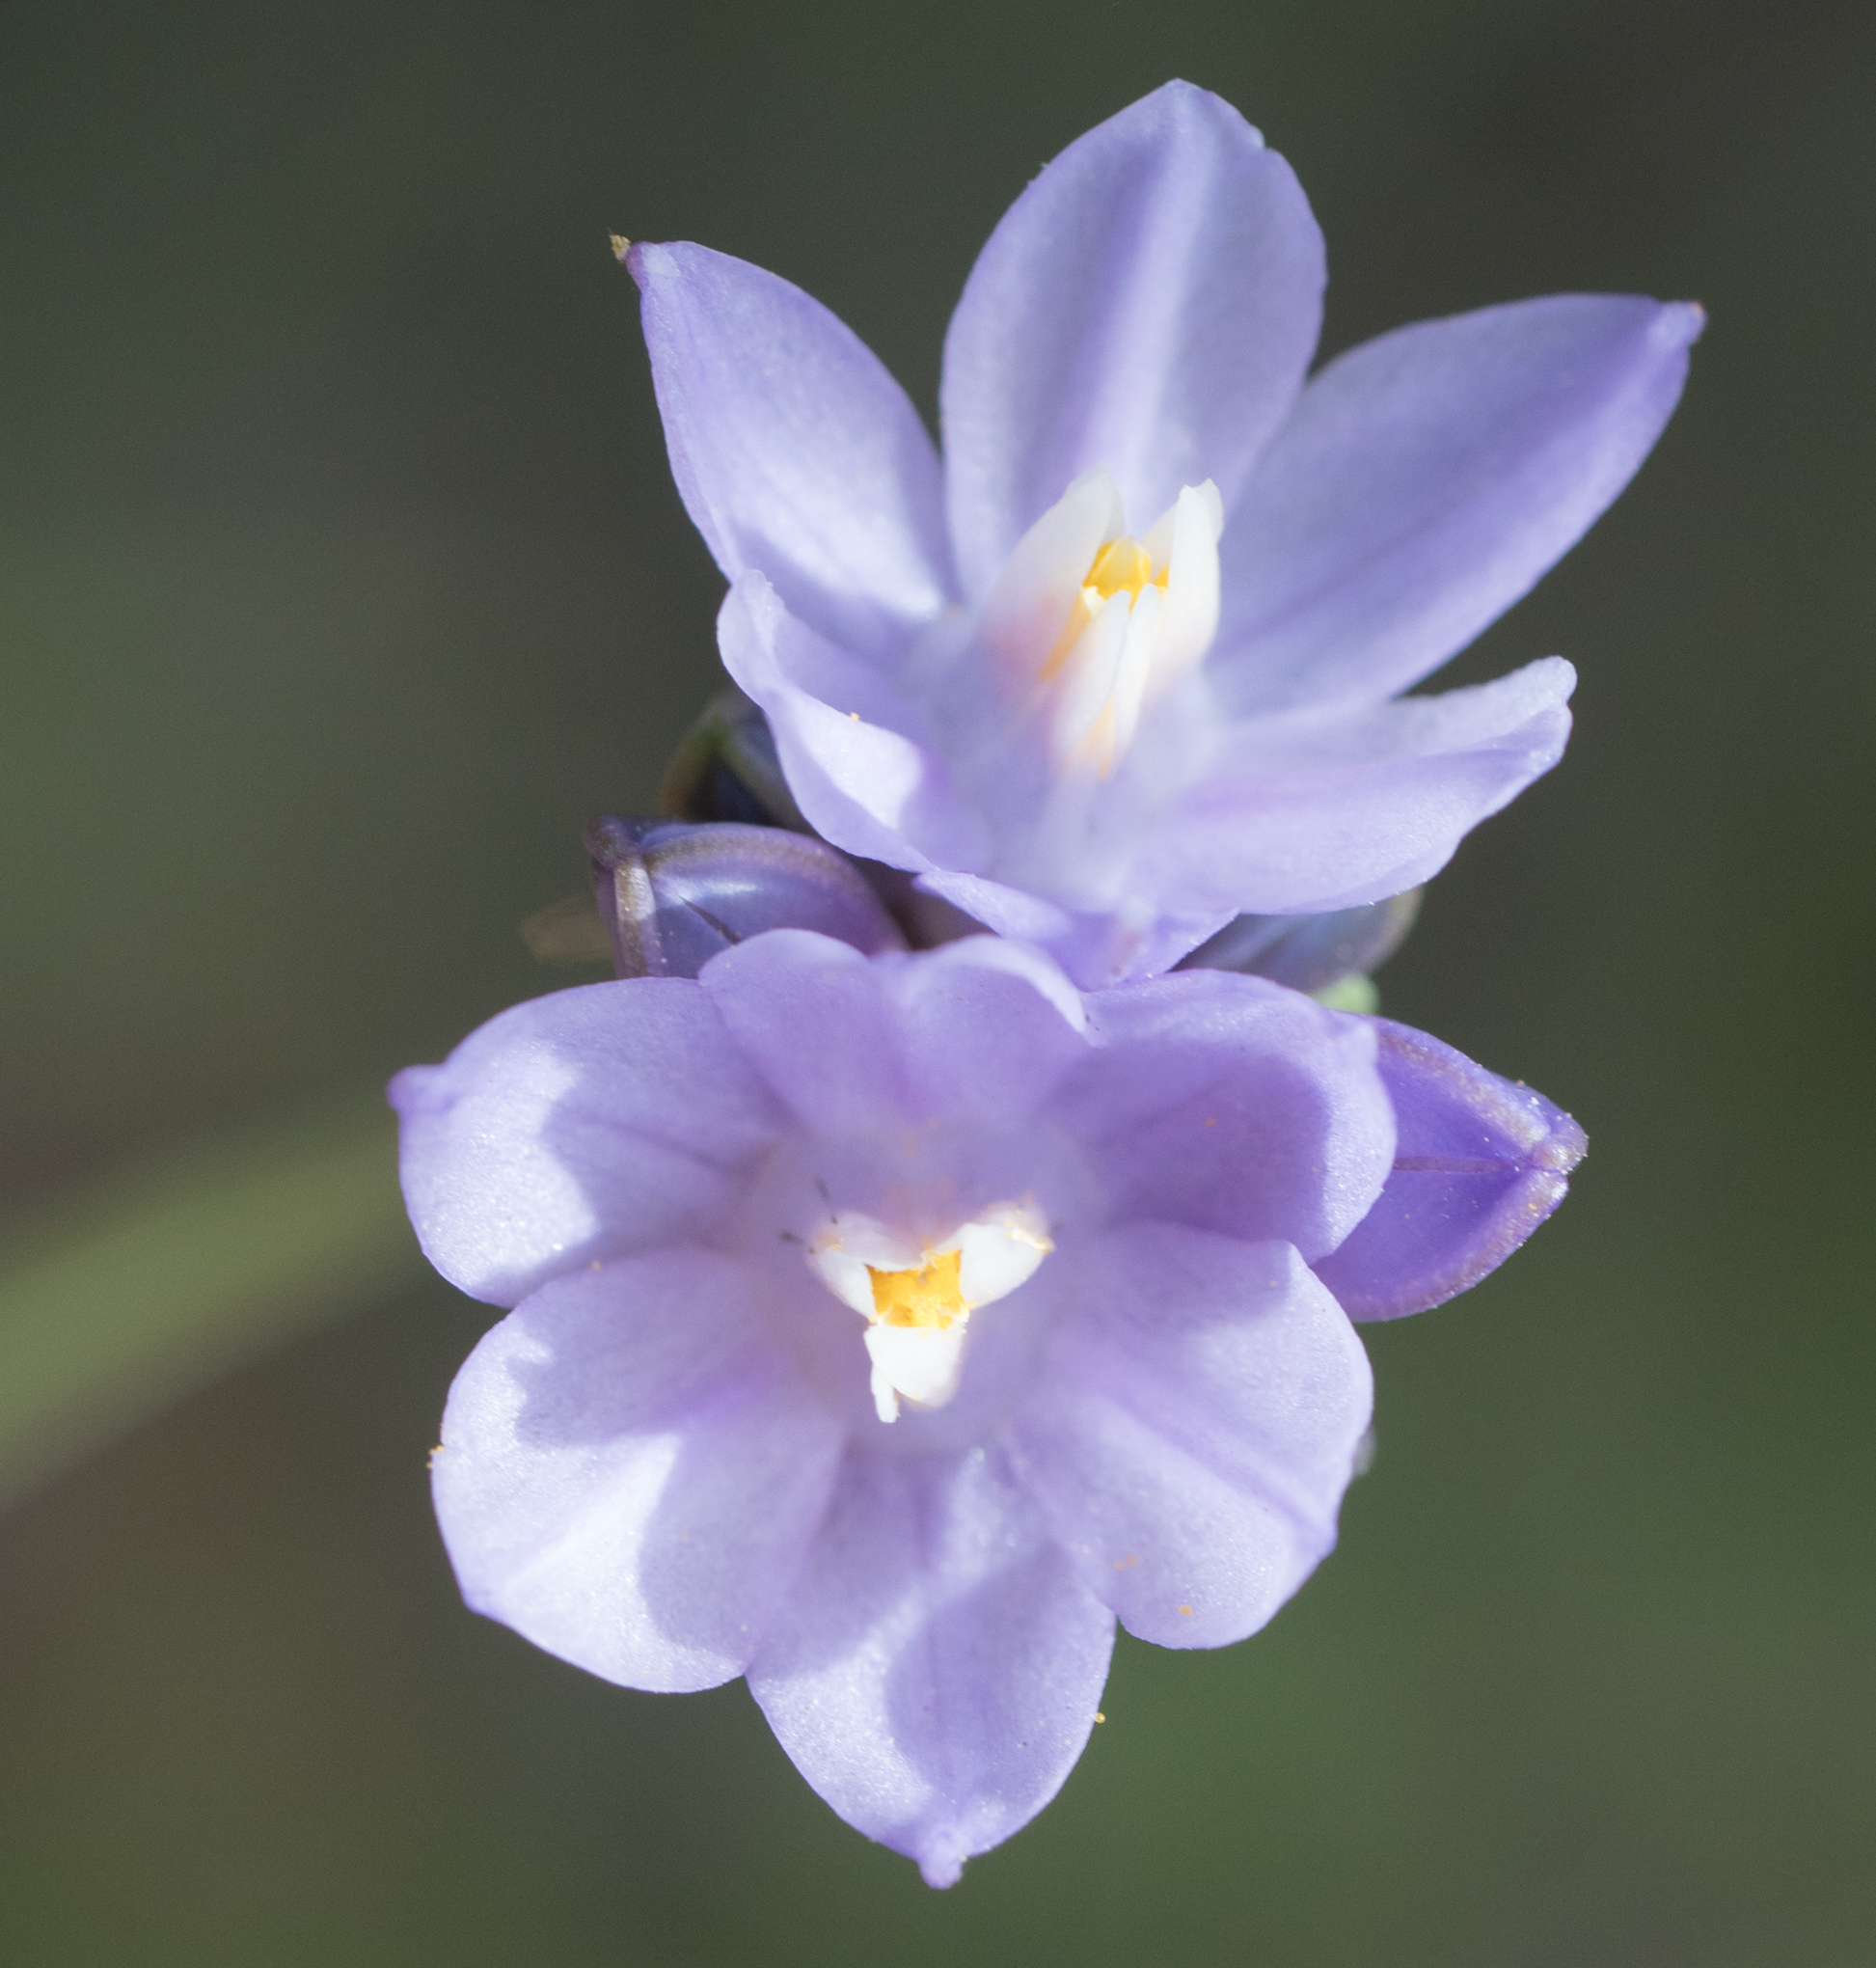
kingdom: Plantae
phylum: Tracheophyta
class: Liliopsida
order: Asparagales
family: Asparagaceae
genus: Dipterostemon
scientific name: Dipterostemon capitatus
